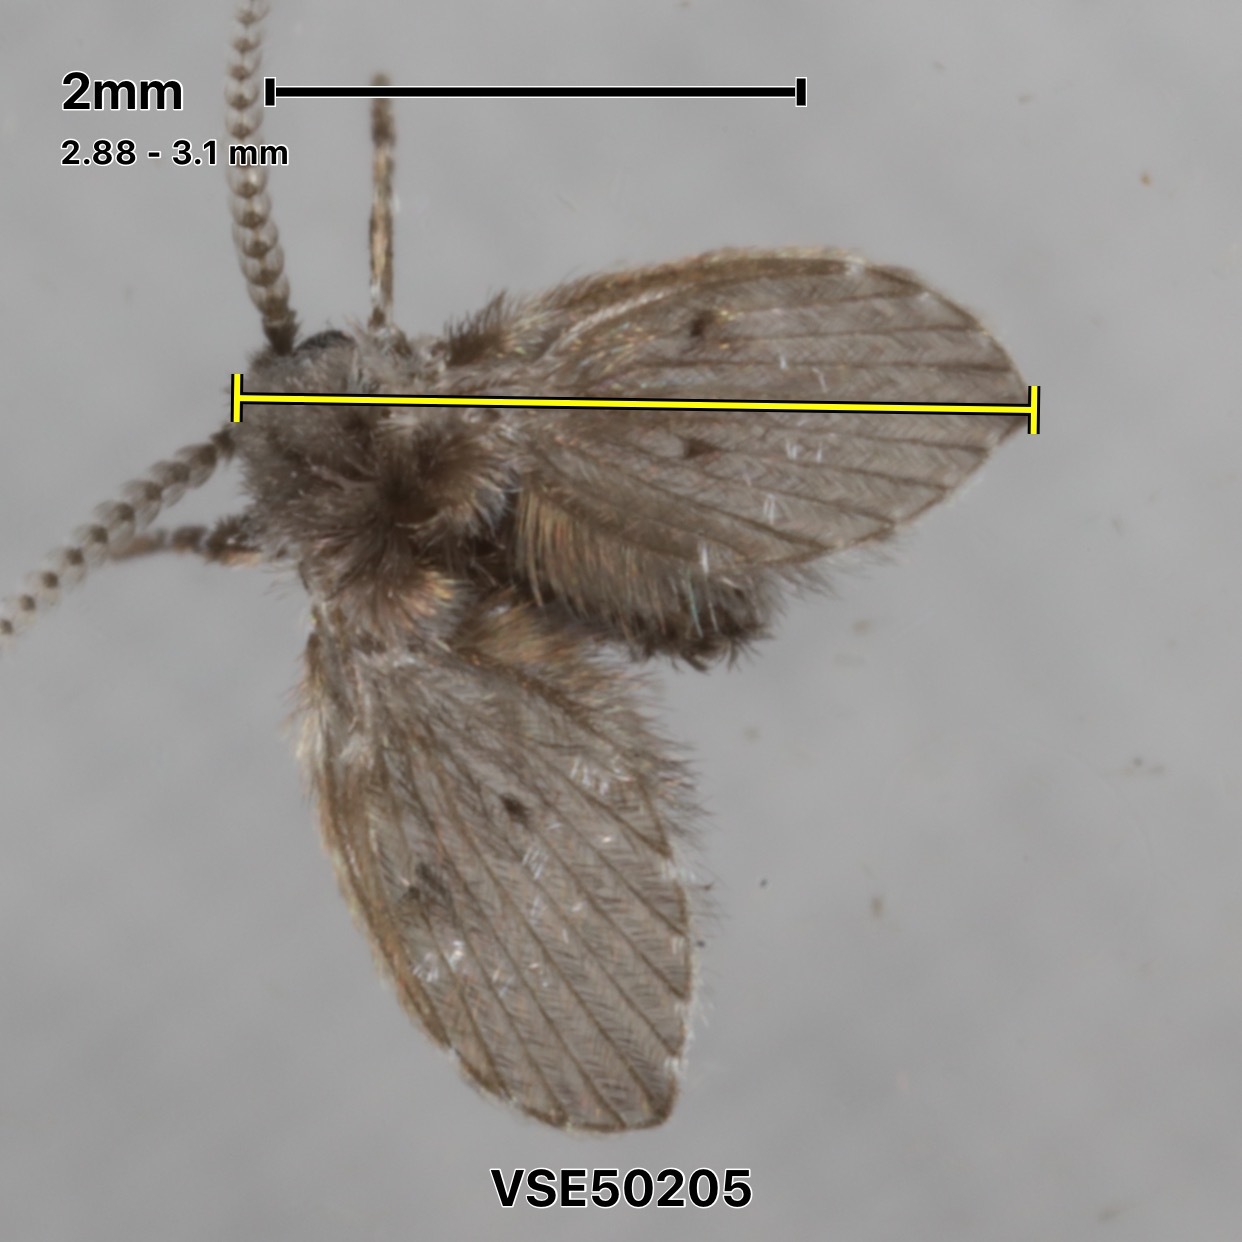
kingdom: Animalia
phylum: Arthropoda
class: Insecta
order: Diptera
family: Psychodidae
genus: Clogmia
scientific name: Clogmia albipunctatus
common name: White-spotted moth fly
